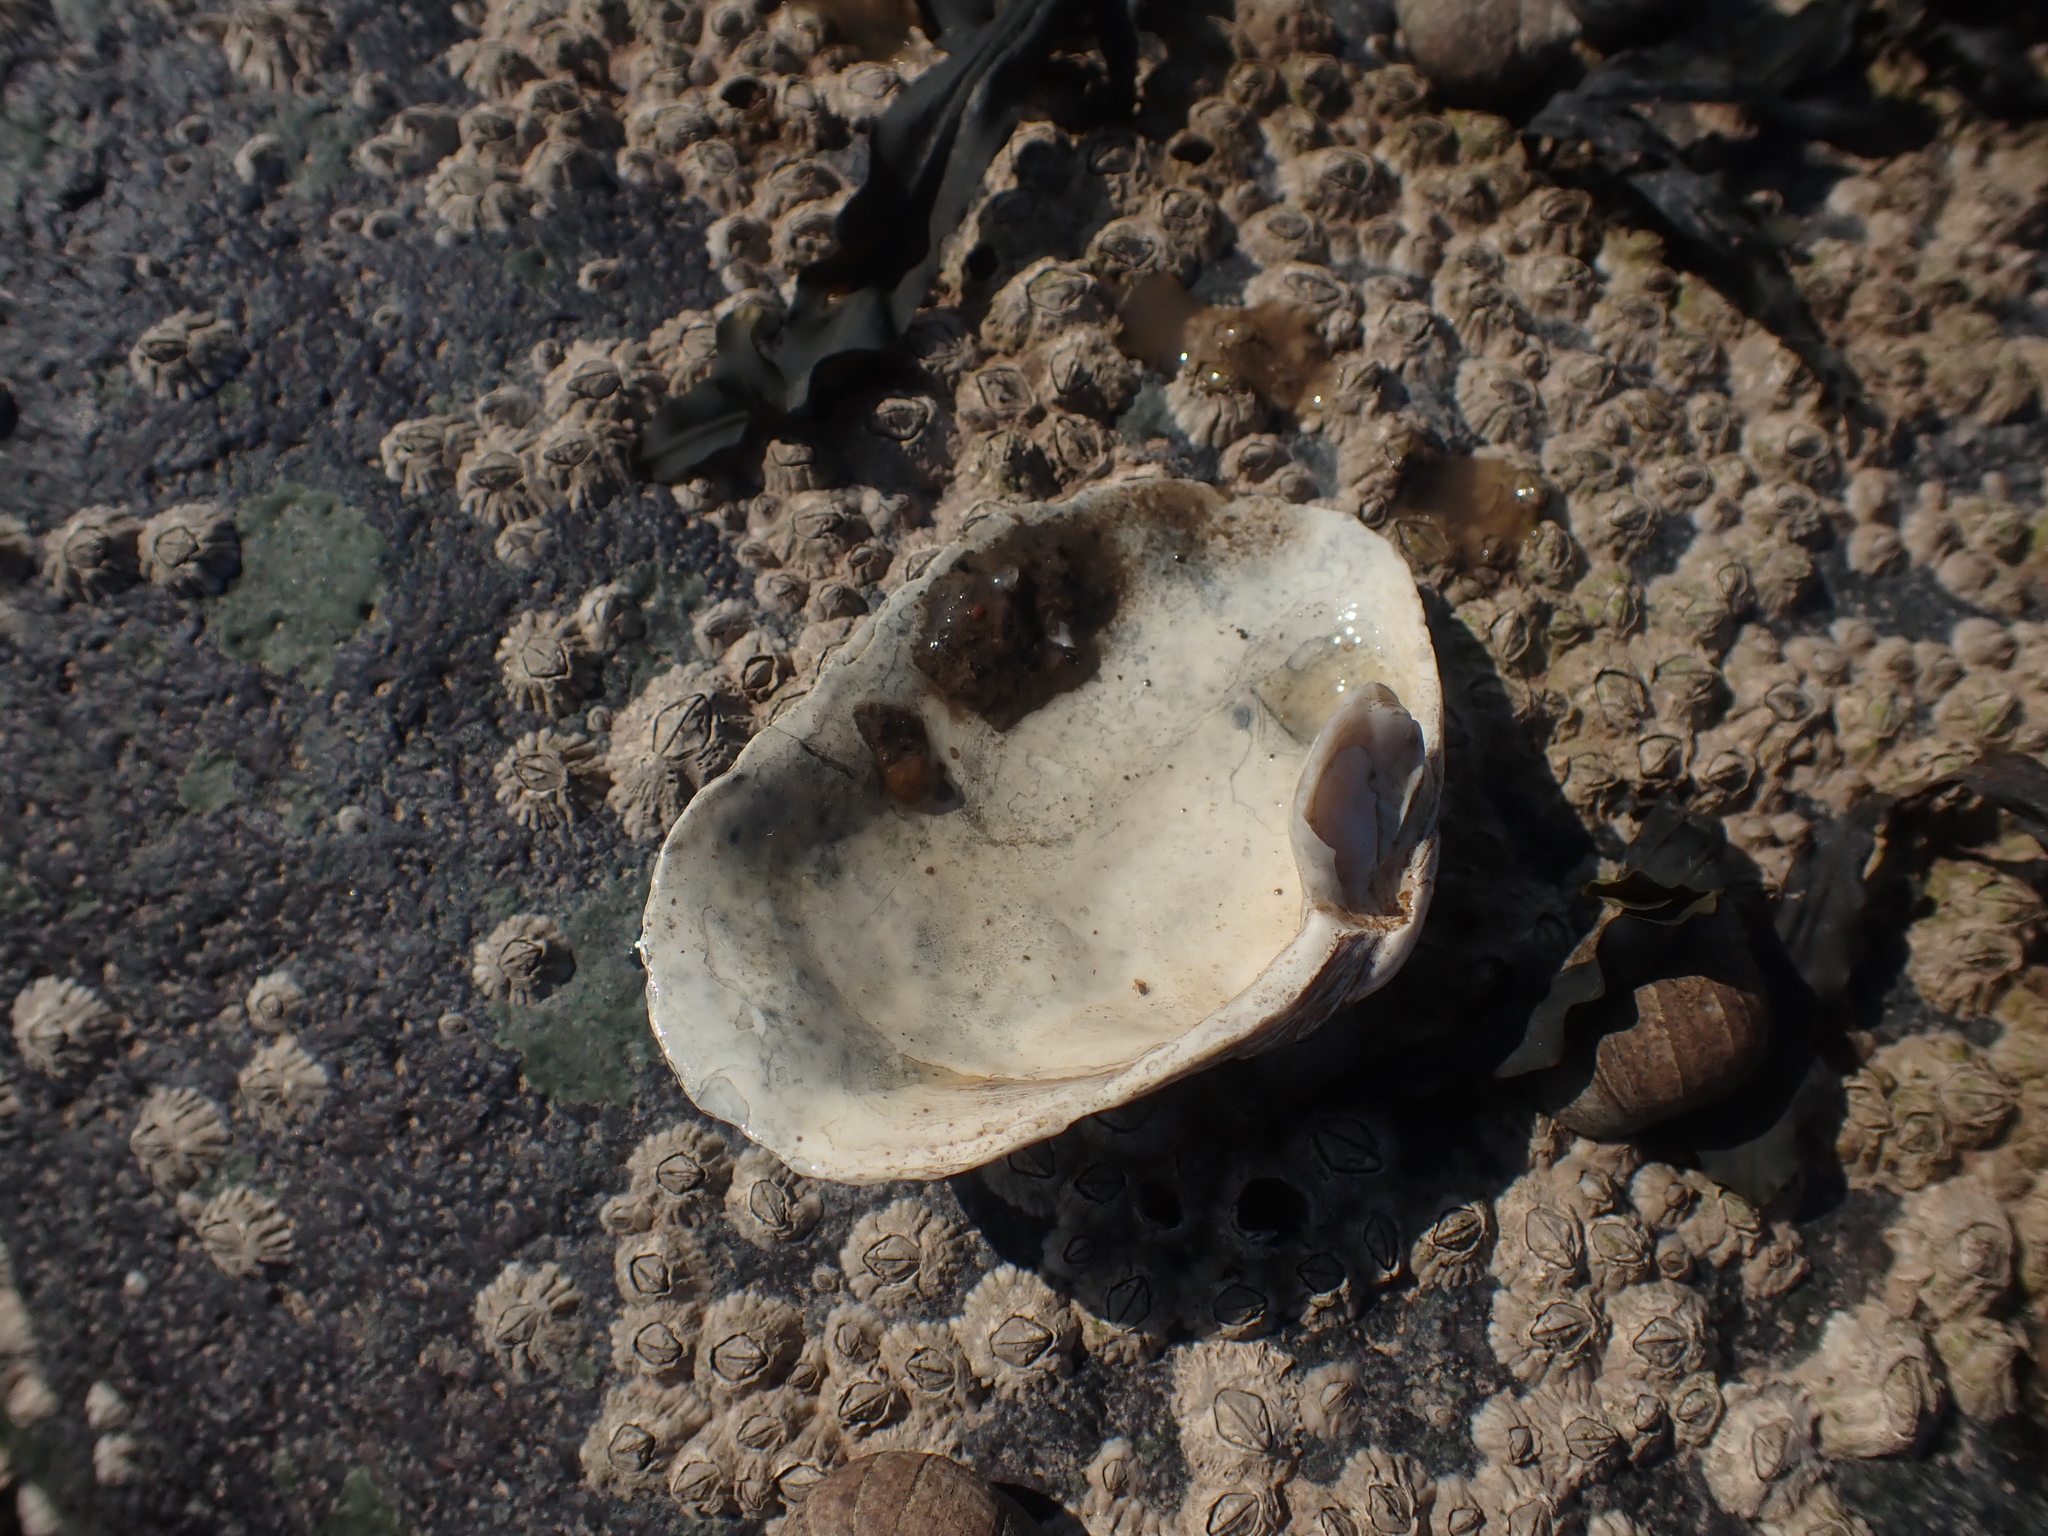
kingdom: Animalia
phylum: Mollusca
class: Bivalvia
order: Myida
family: Myidae
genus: Mya
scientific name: Mya arenaria
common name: Soft-shelled clam
